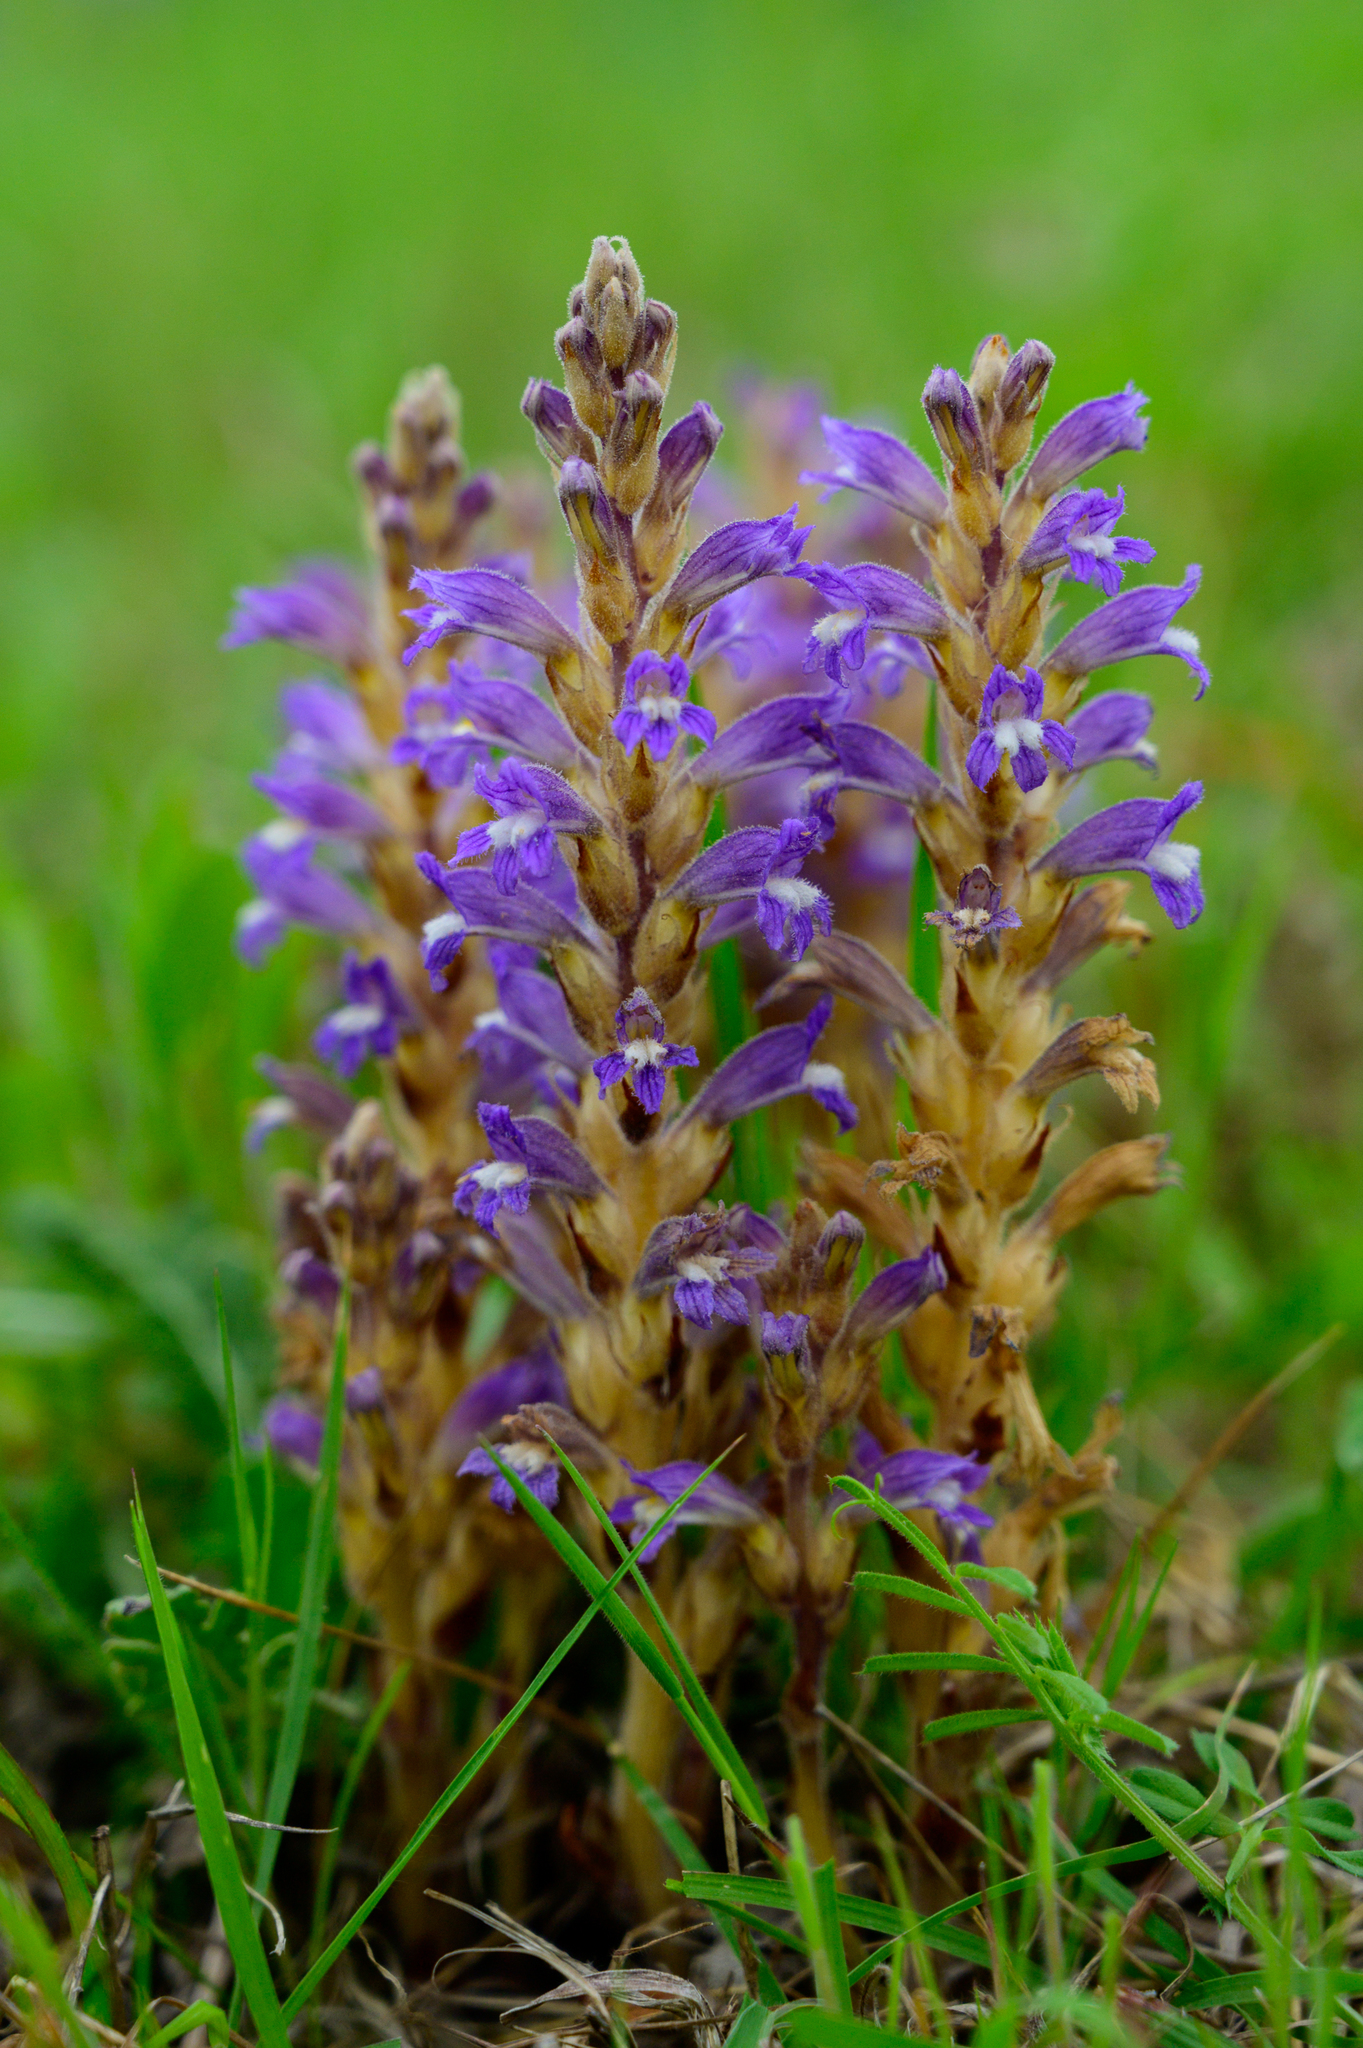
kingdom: Plantae
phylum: Tracheophyta
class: Magnoliopsida
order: Lamiales
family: Orobanchaceae
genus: Phelipanche
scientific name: Phelipanche mutelii
